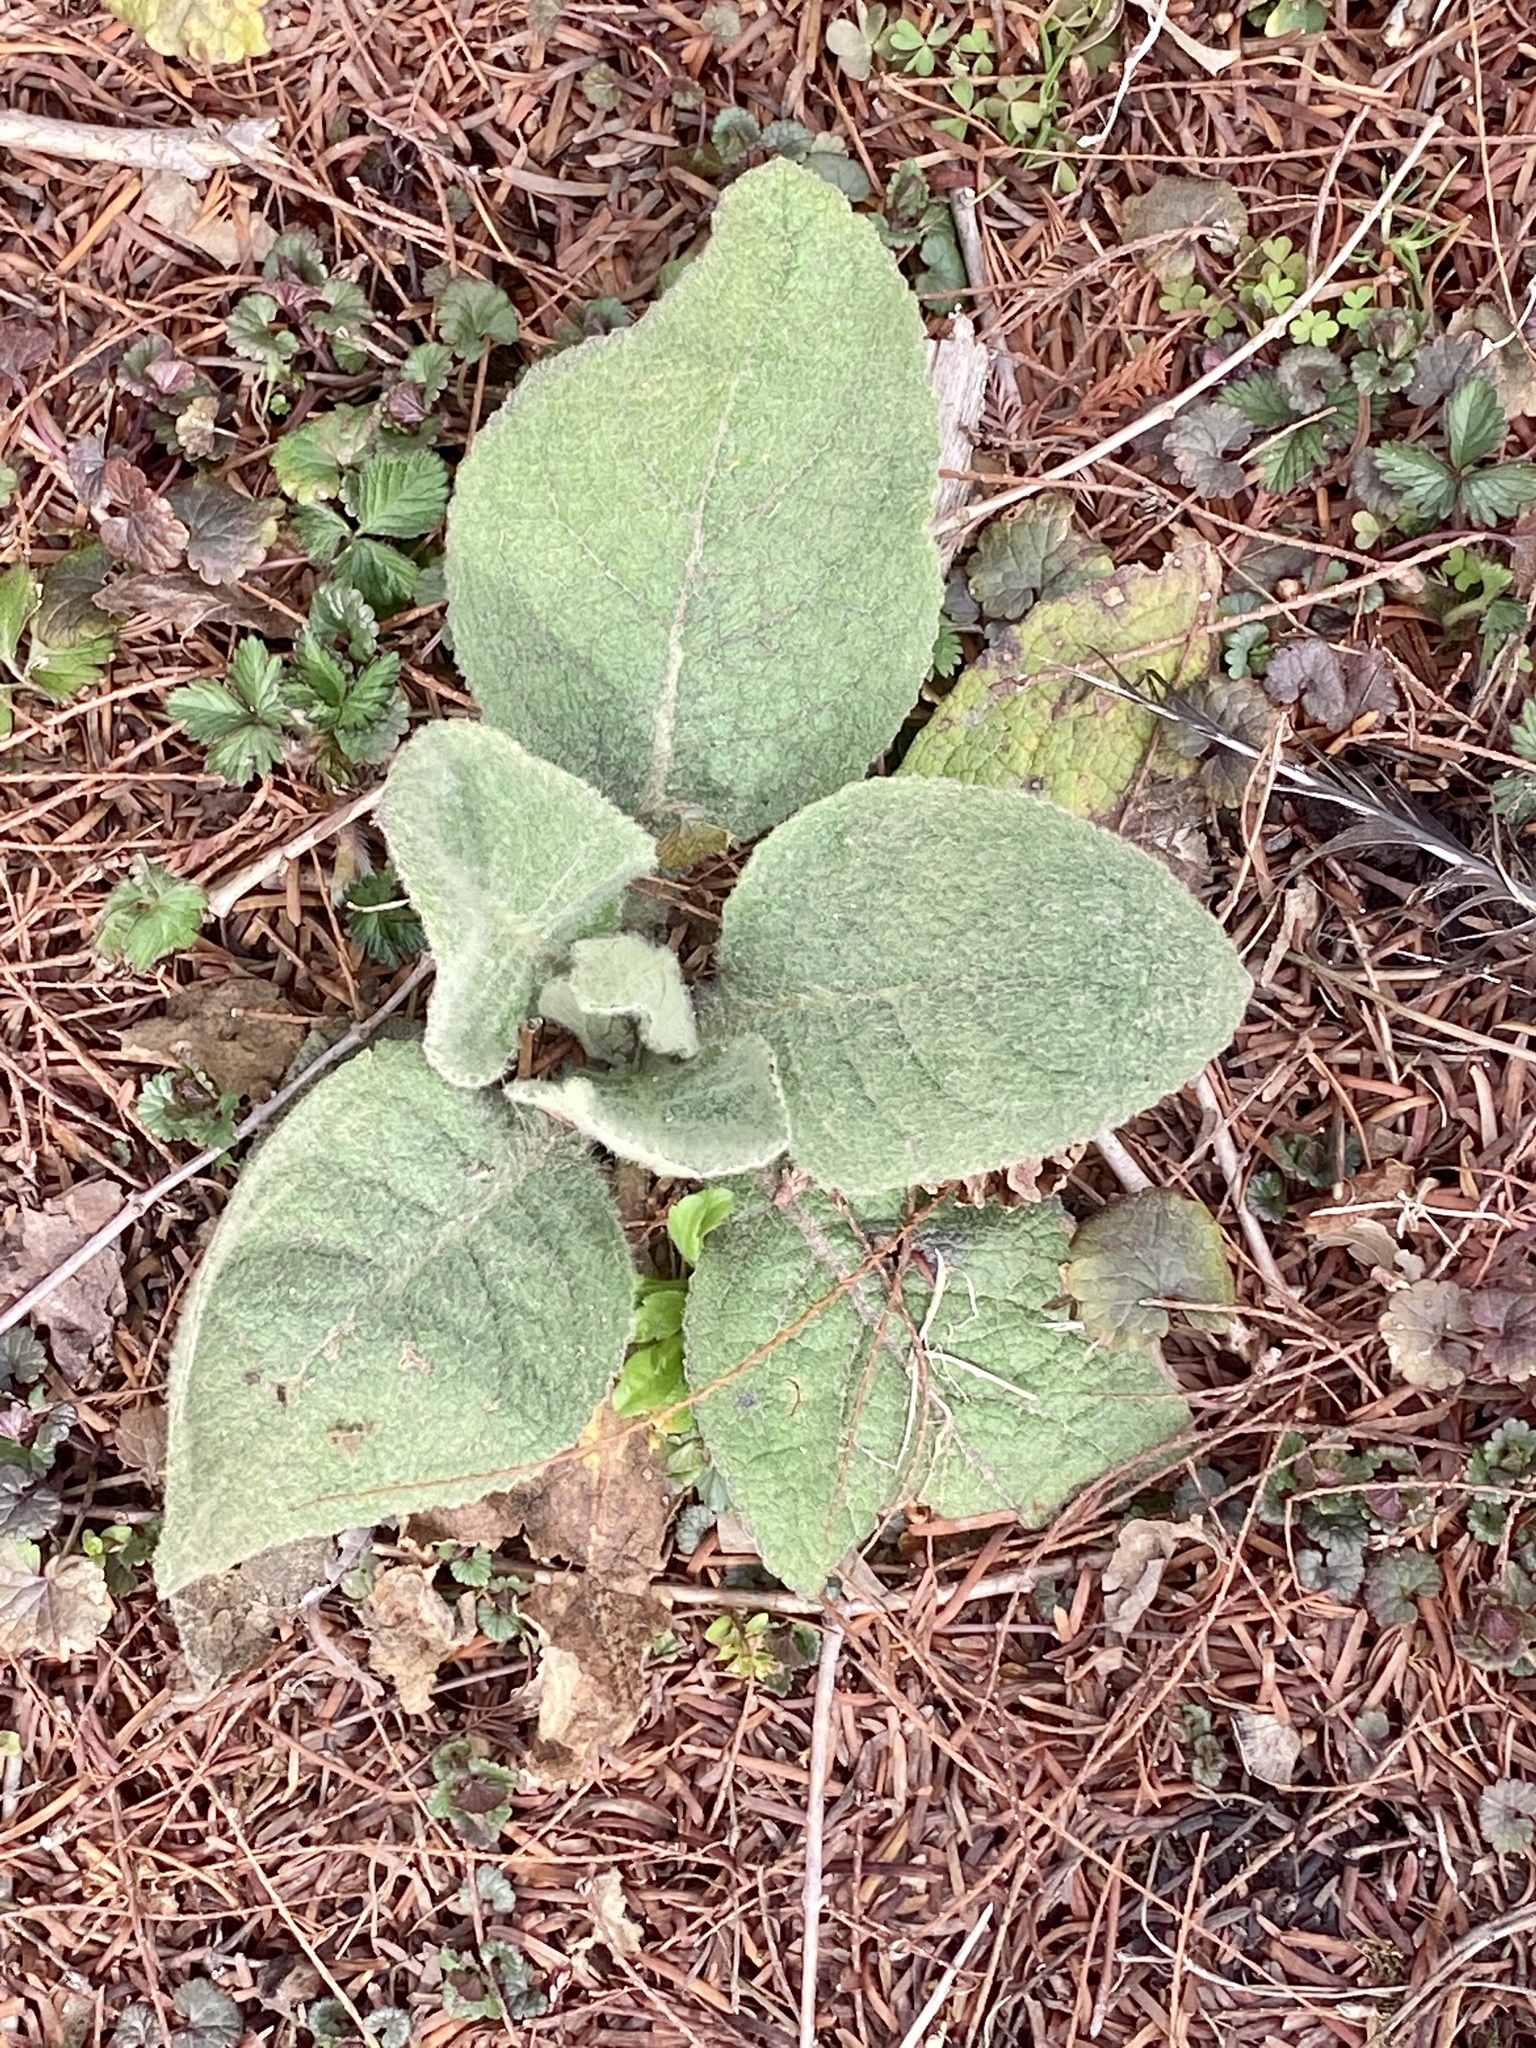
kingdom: Plantae
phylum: Tracheophyta
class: Magnoliopsida
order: Lamiales
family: Scrophulariaceae
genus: Verbascum
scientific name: Verbascum thapsus
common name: Common mullein
